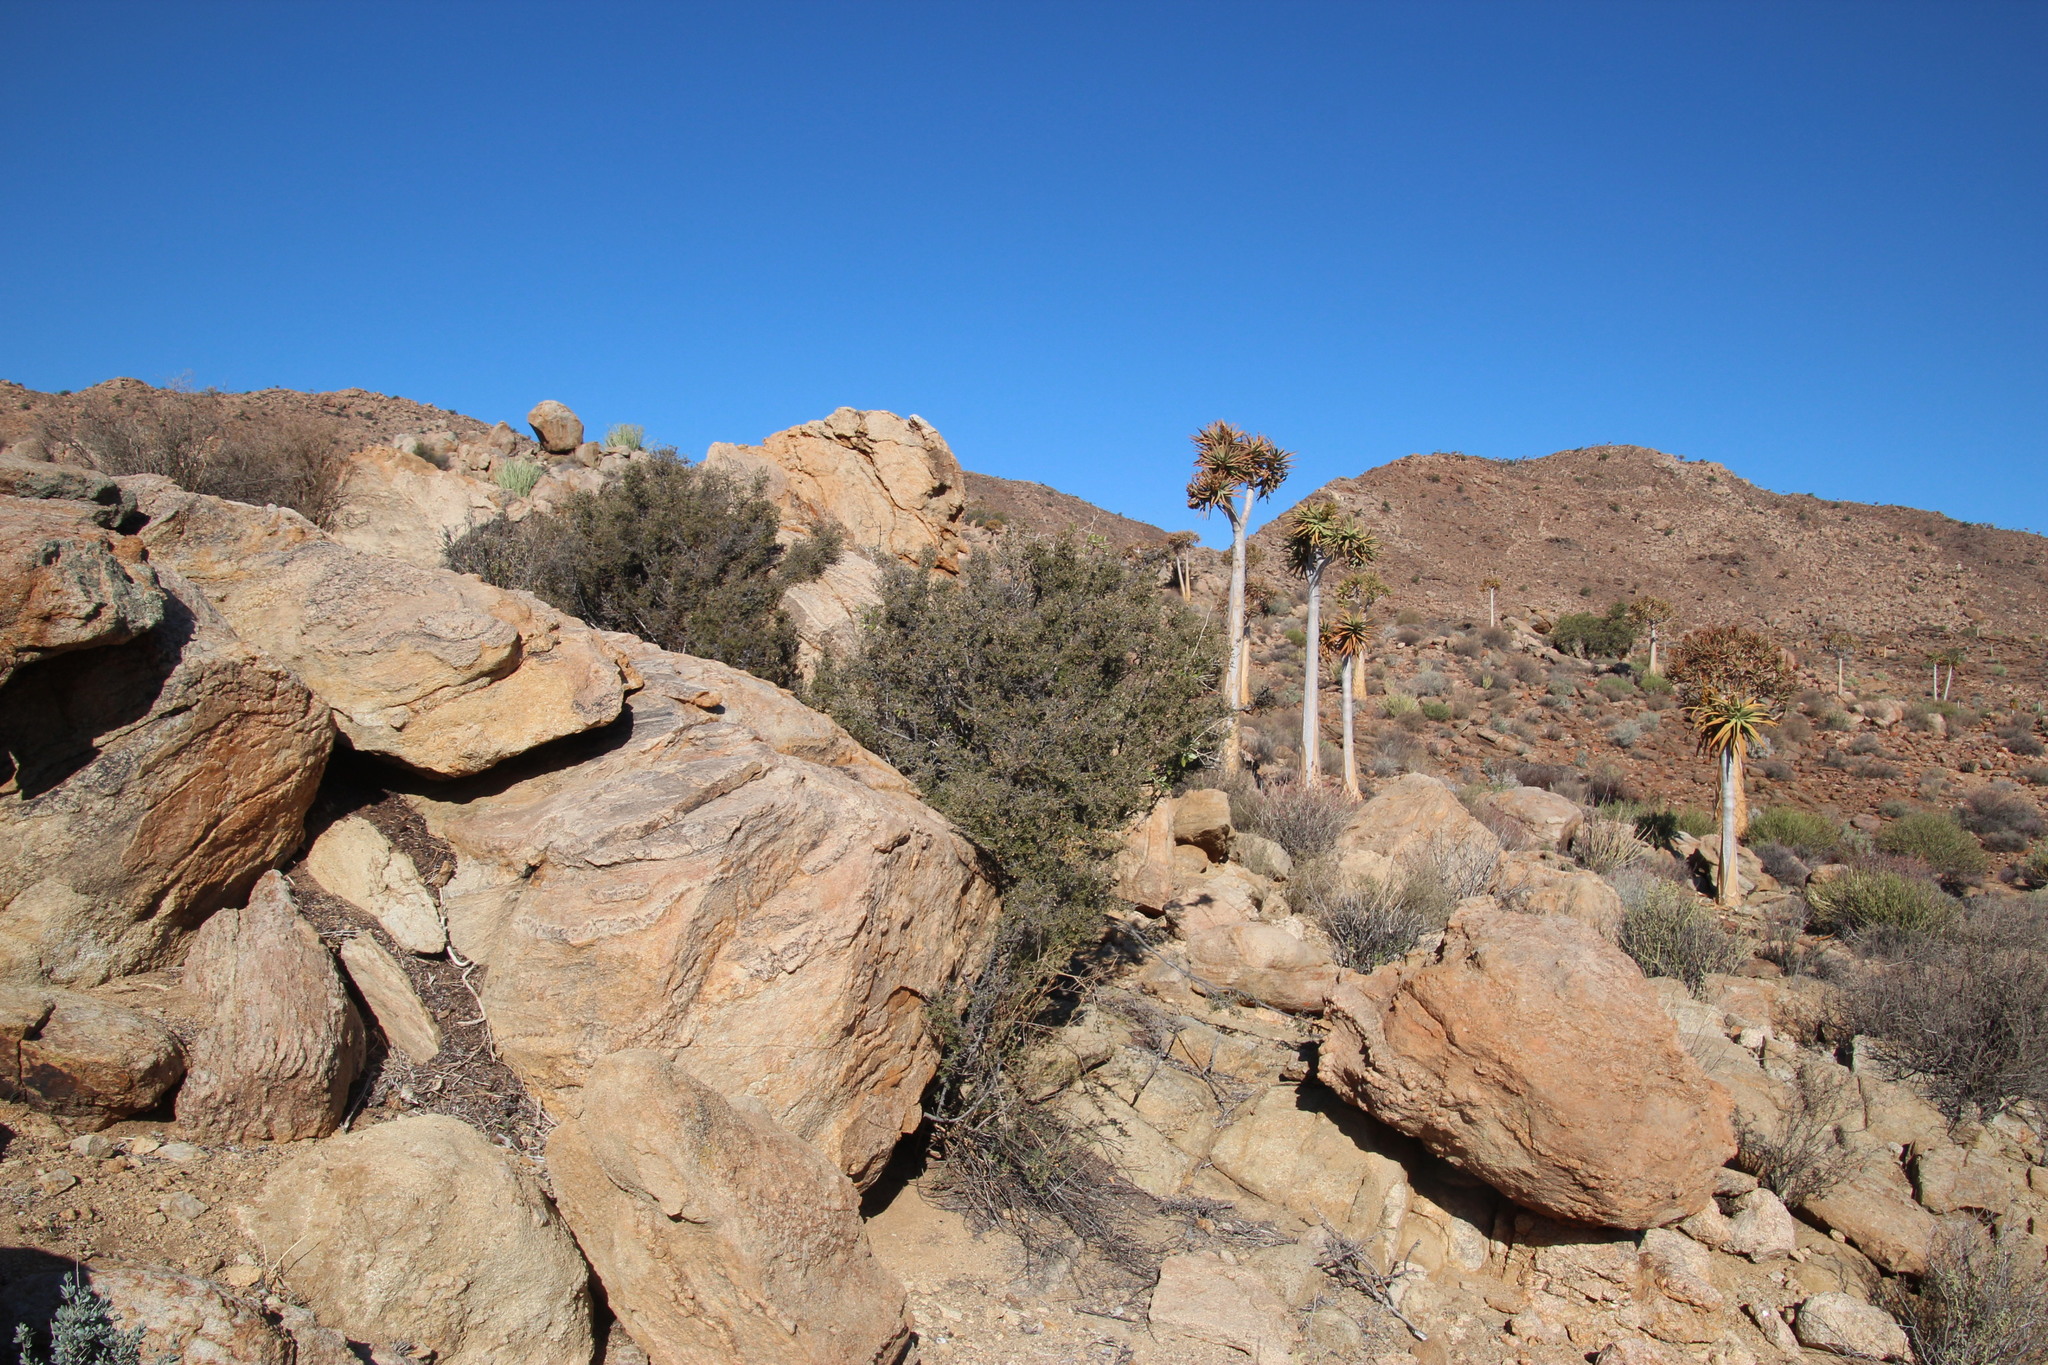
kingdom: Plantae
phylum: Tracheophyta
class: Magnoliopsida
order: Ericales
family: Ebenaceae
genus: Diospyros
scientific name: Diospyros ramulosa
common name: Namaqua fire-sticks
